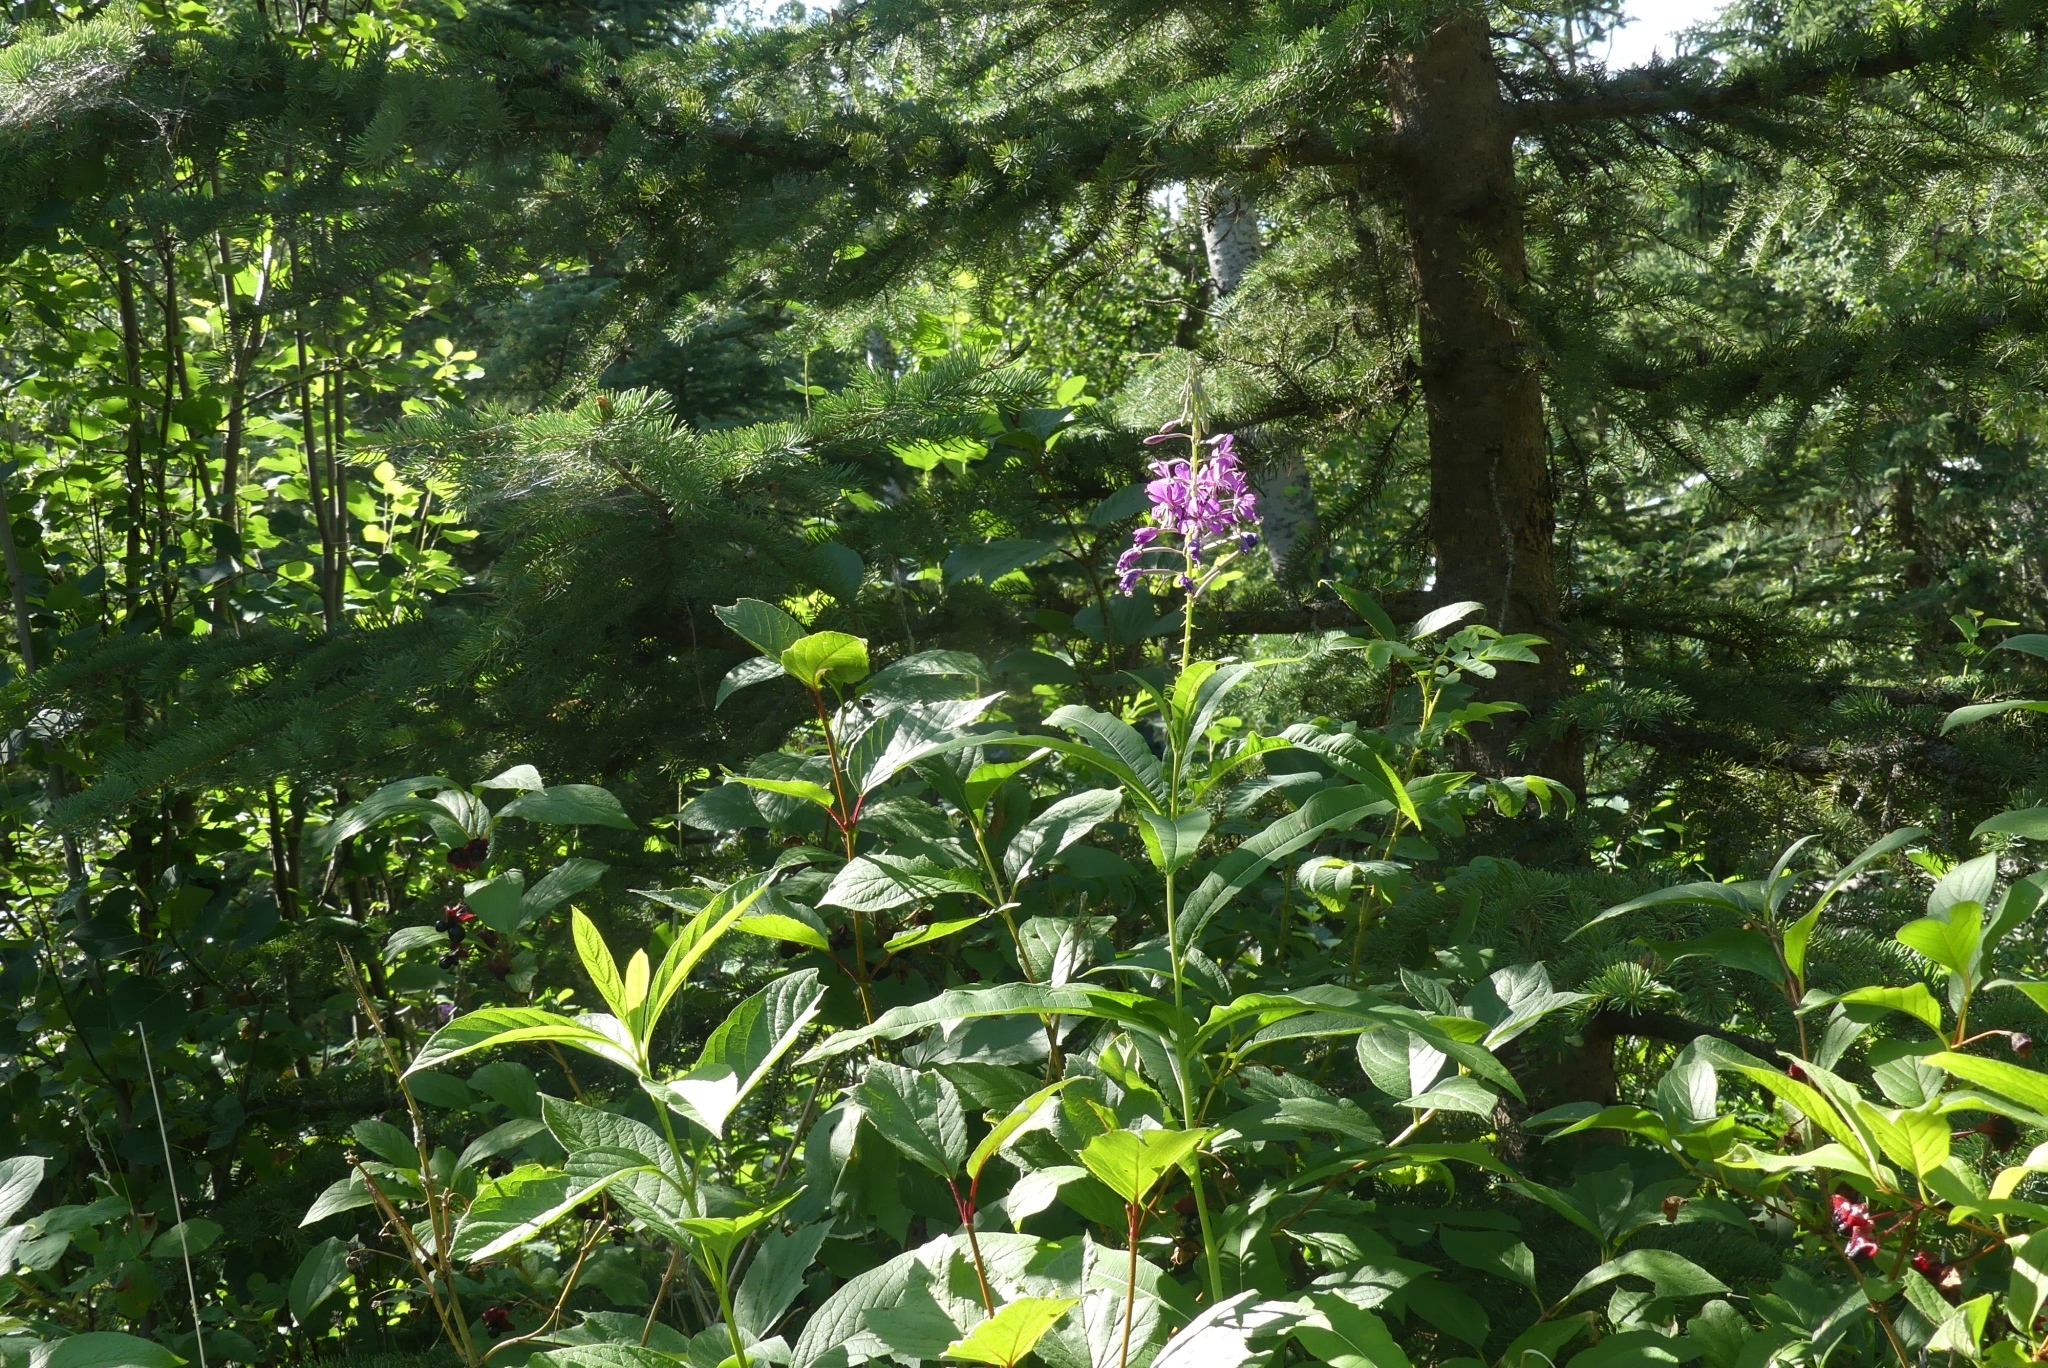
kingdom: Plantae
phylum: Tracheophyta
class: Magnoliopsida
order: Myrtales
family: Onagraceae
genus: Chamaenerion
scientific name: Chamaenerion angustifolium
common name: Fireweed
